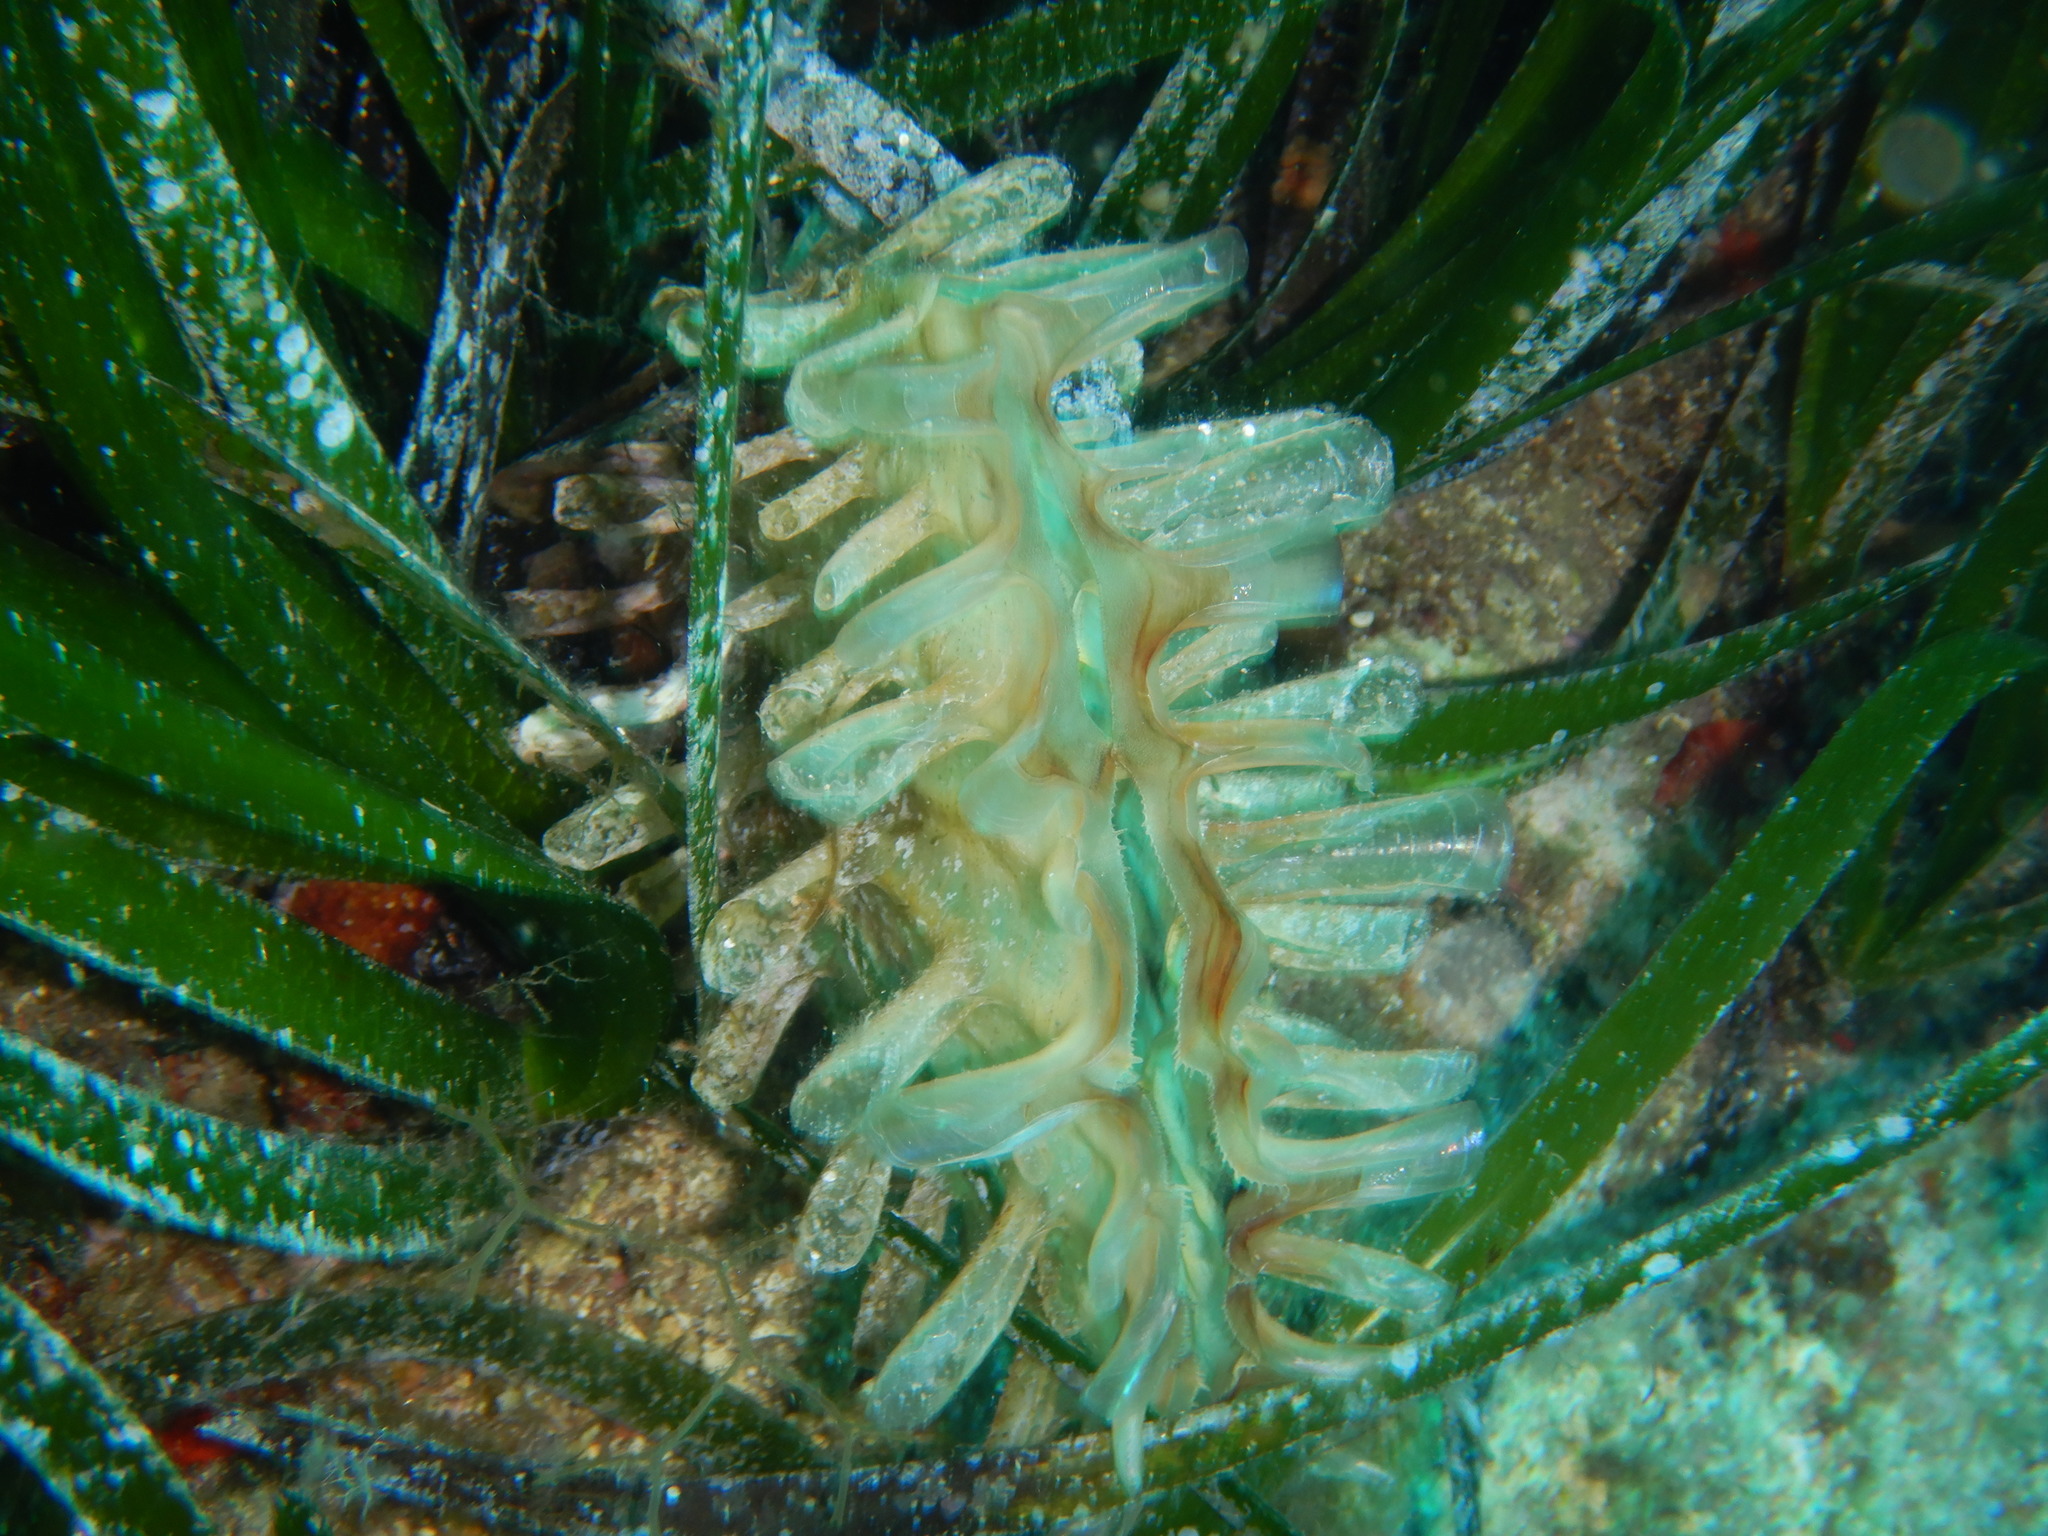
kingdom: Animalia
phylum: Mollusca
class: Bivalvia
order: Ostreida
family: Pinnidae
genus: Pinna
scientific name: Pinna rudis
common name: Rough penshell
